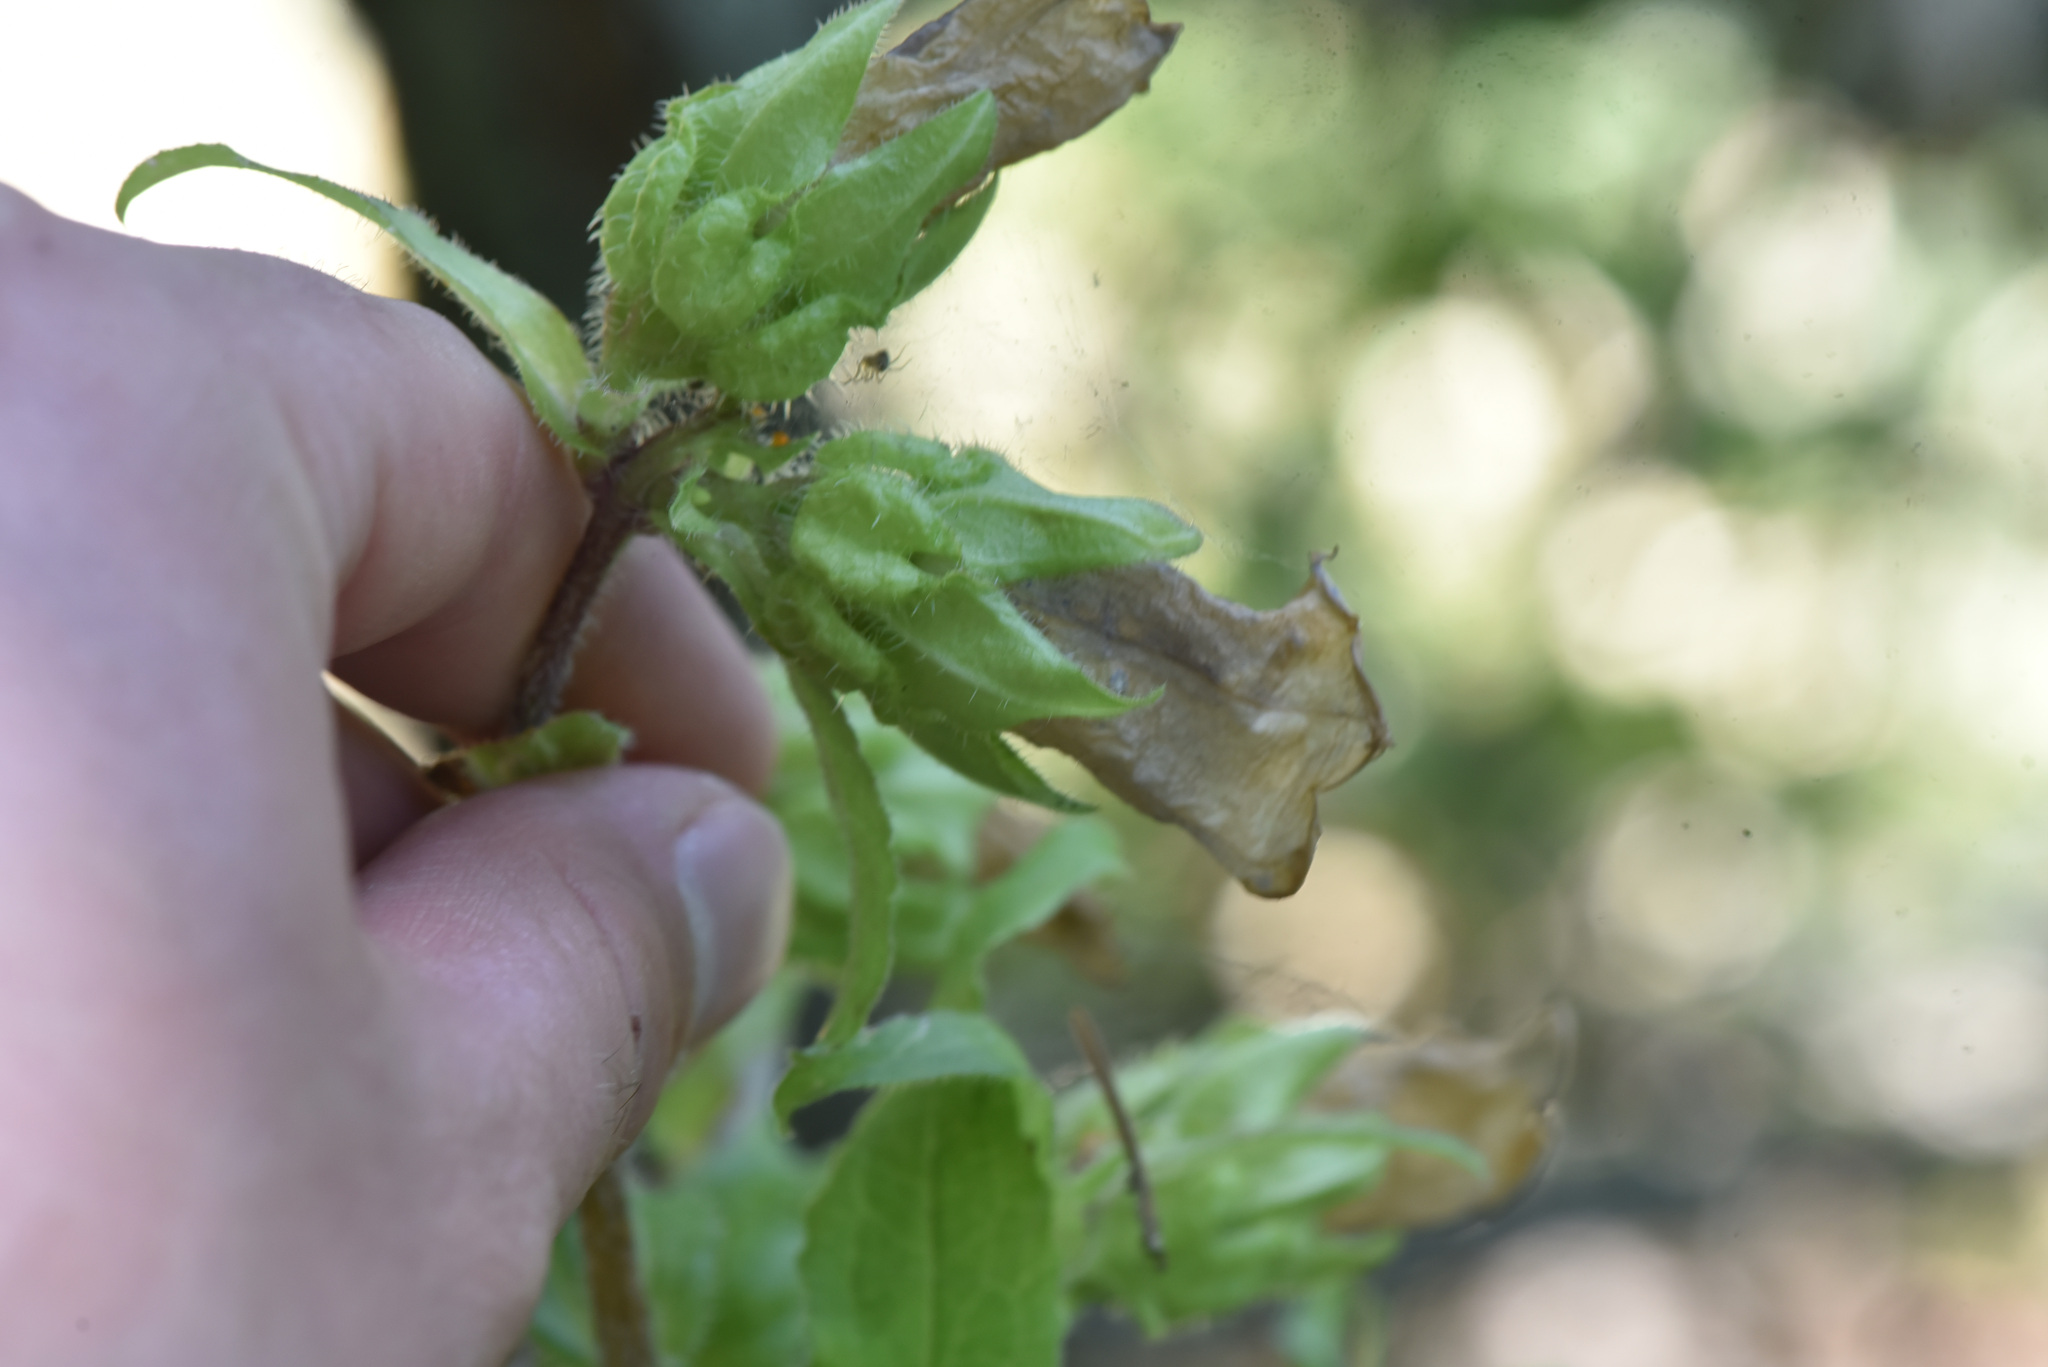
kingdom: Plantae
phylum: Tracheophyta
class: Magnoliopsida
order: Asterales
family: Campanulaceae
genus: Campanula
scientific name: Campanula medium
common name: Canterbury bells
